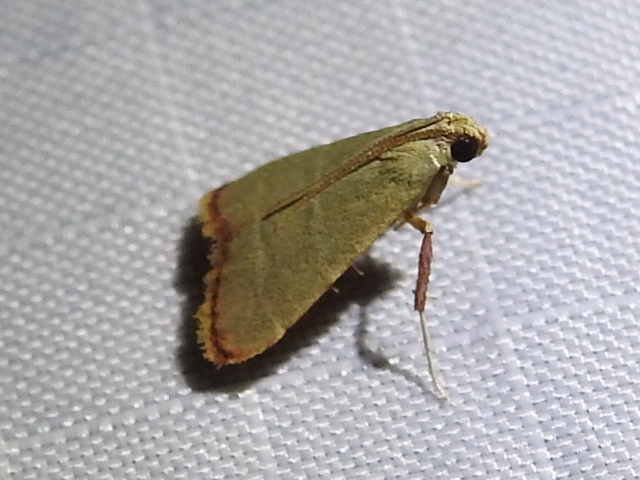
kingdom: Animalia
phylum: Arthropoda
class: Insecta
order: Lepidoptera
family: Pyralidae
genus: Arta
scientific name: Arta olivalis
